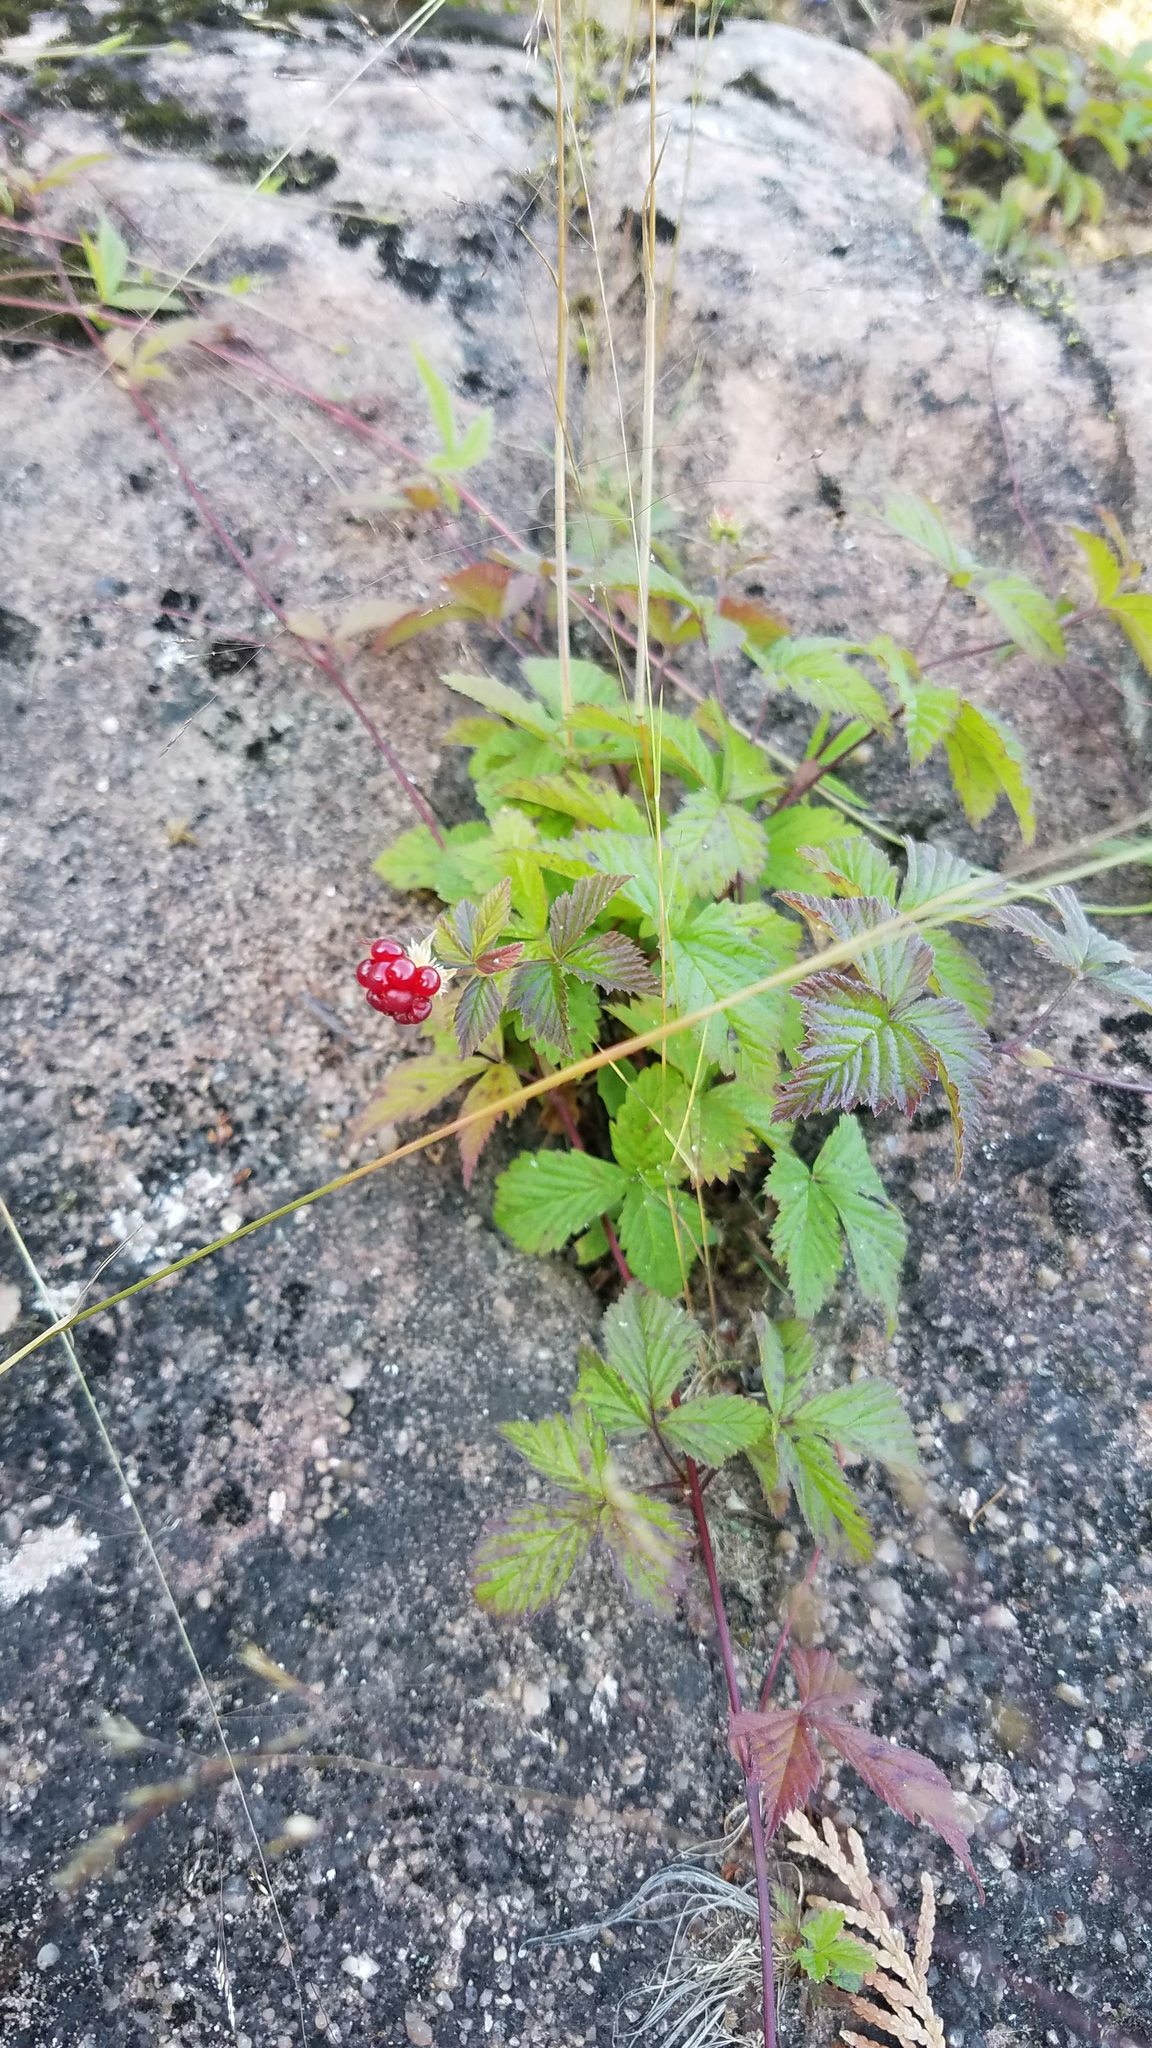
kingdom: Plantae
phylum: Tracheophyta
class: Magnoliopsida
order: Rosales
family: Rosaceae
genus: Rubus
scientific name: Rubus pubescens
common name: Dwarf raspberry
